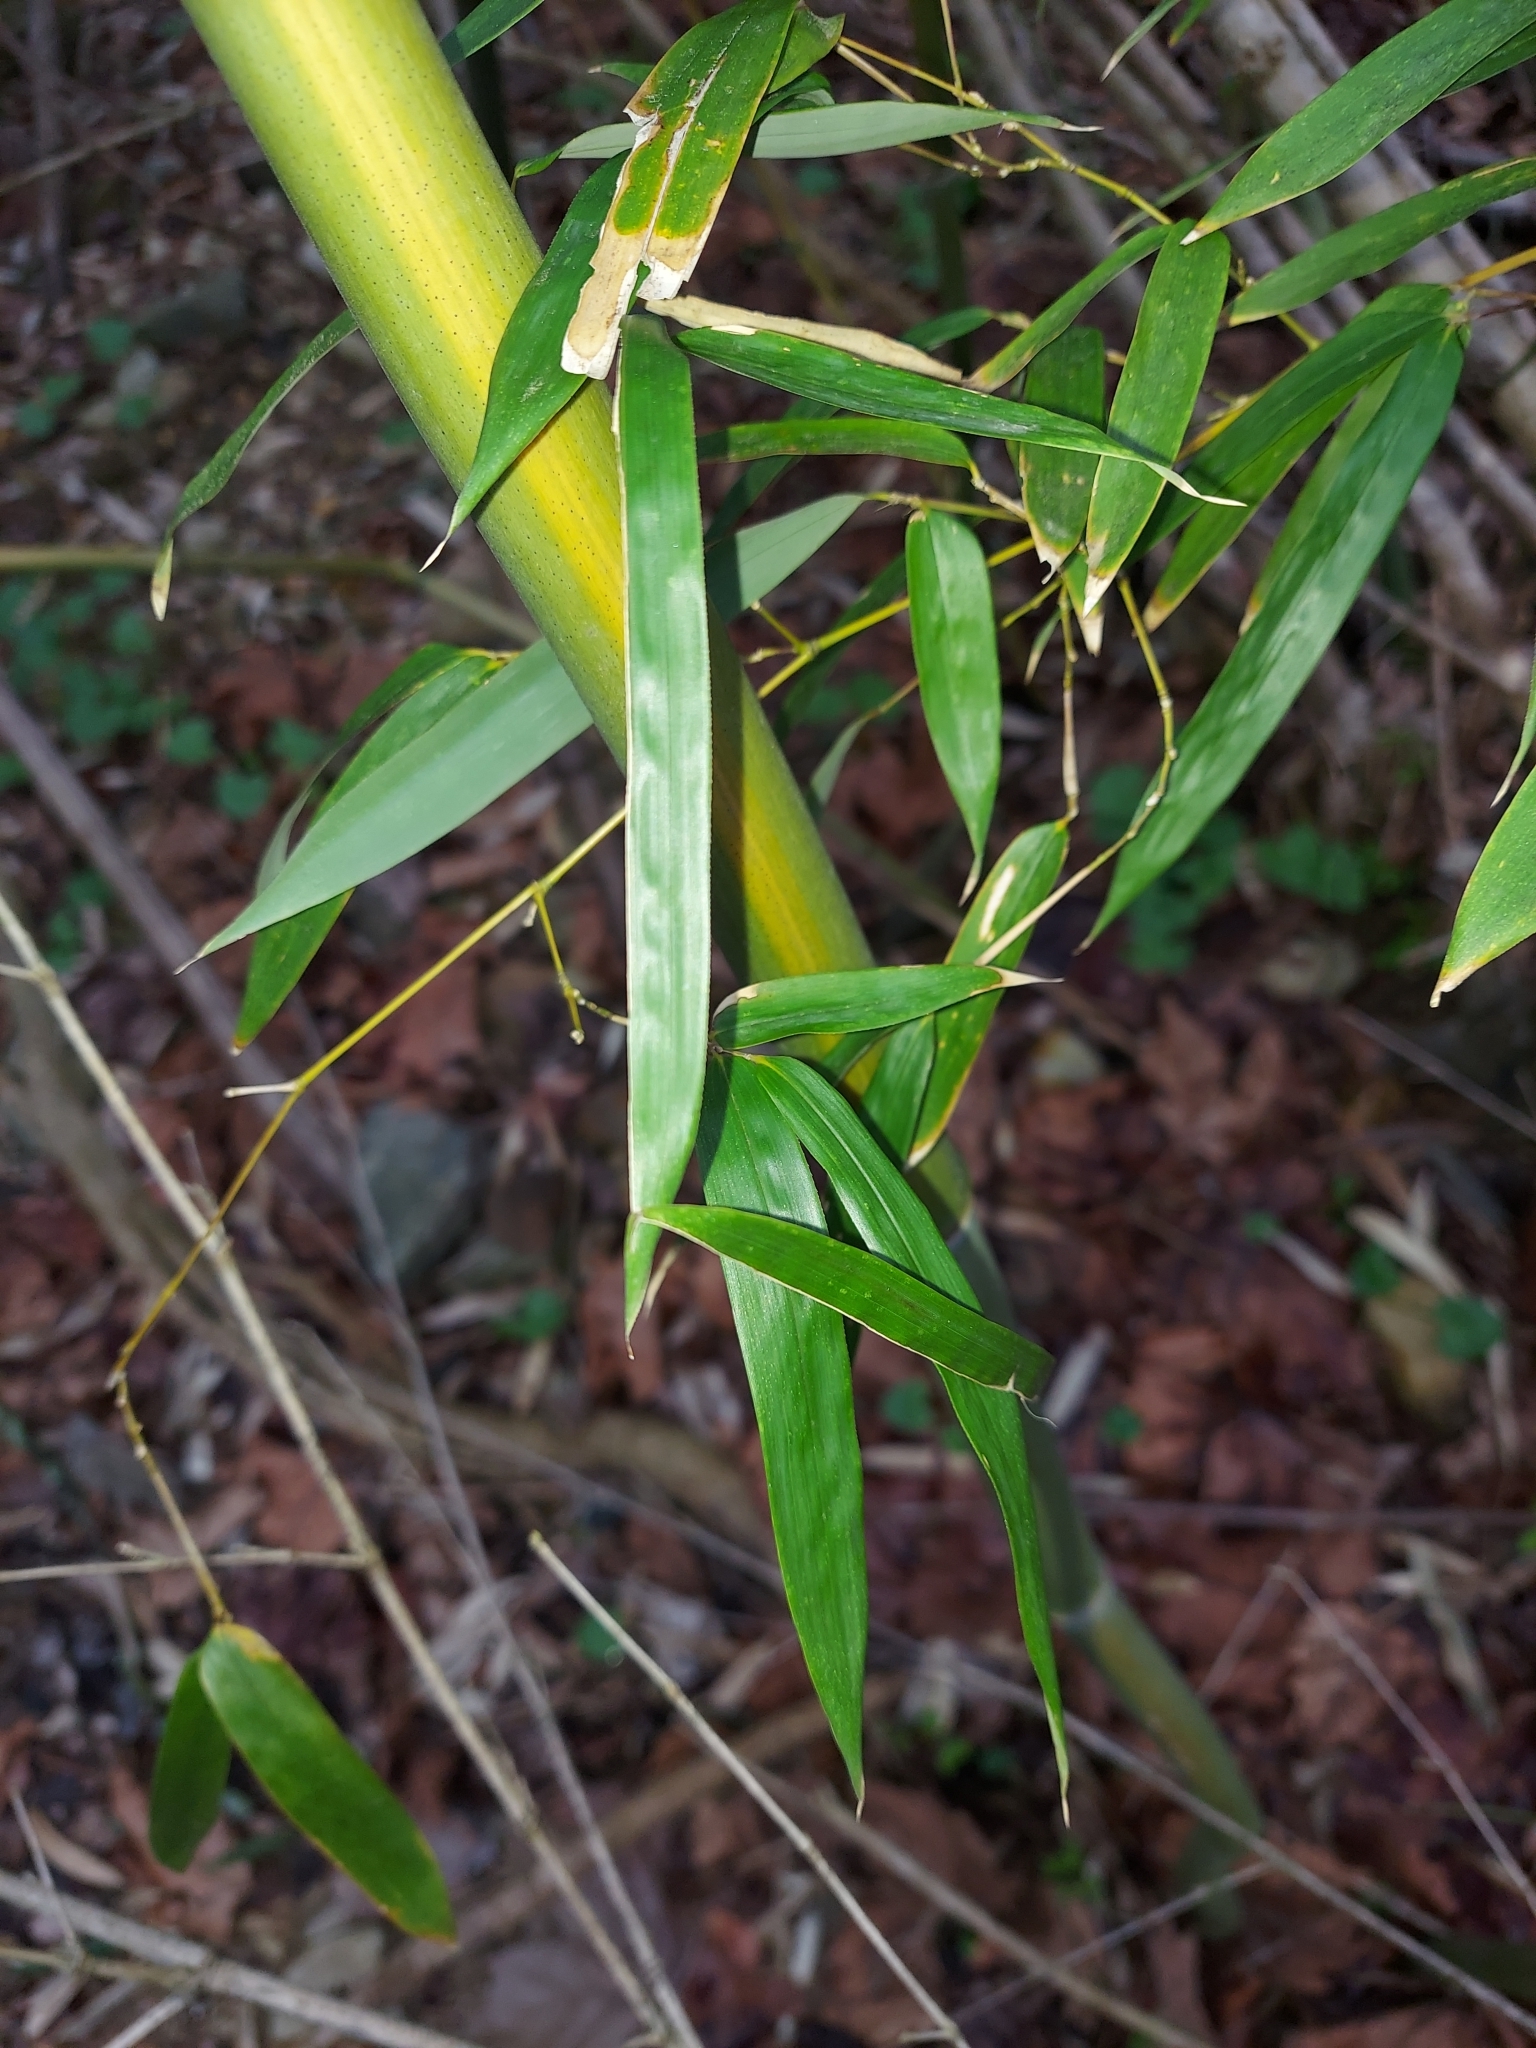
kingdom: Plantae
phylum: Tracheophyta
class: Liliopsida
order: Poales
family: Poaceae
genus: Phyllostachys
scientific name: Phyllostachys aureosulcata
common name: Yellow groove bamboo
